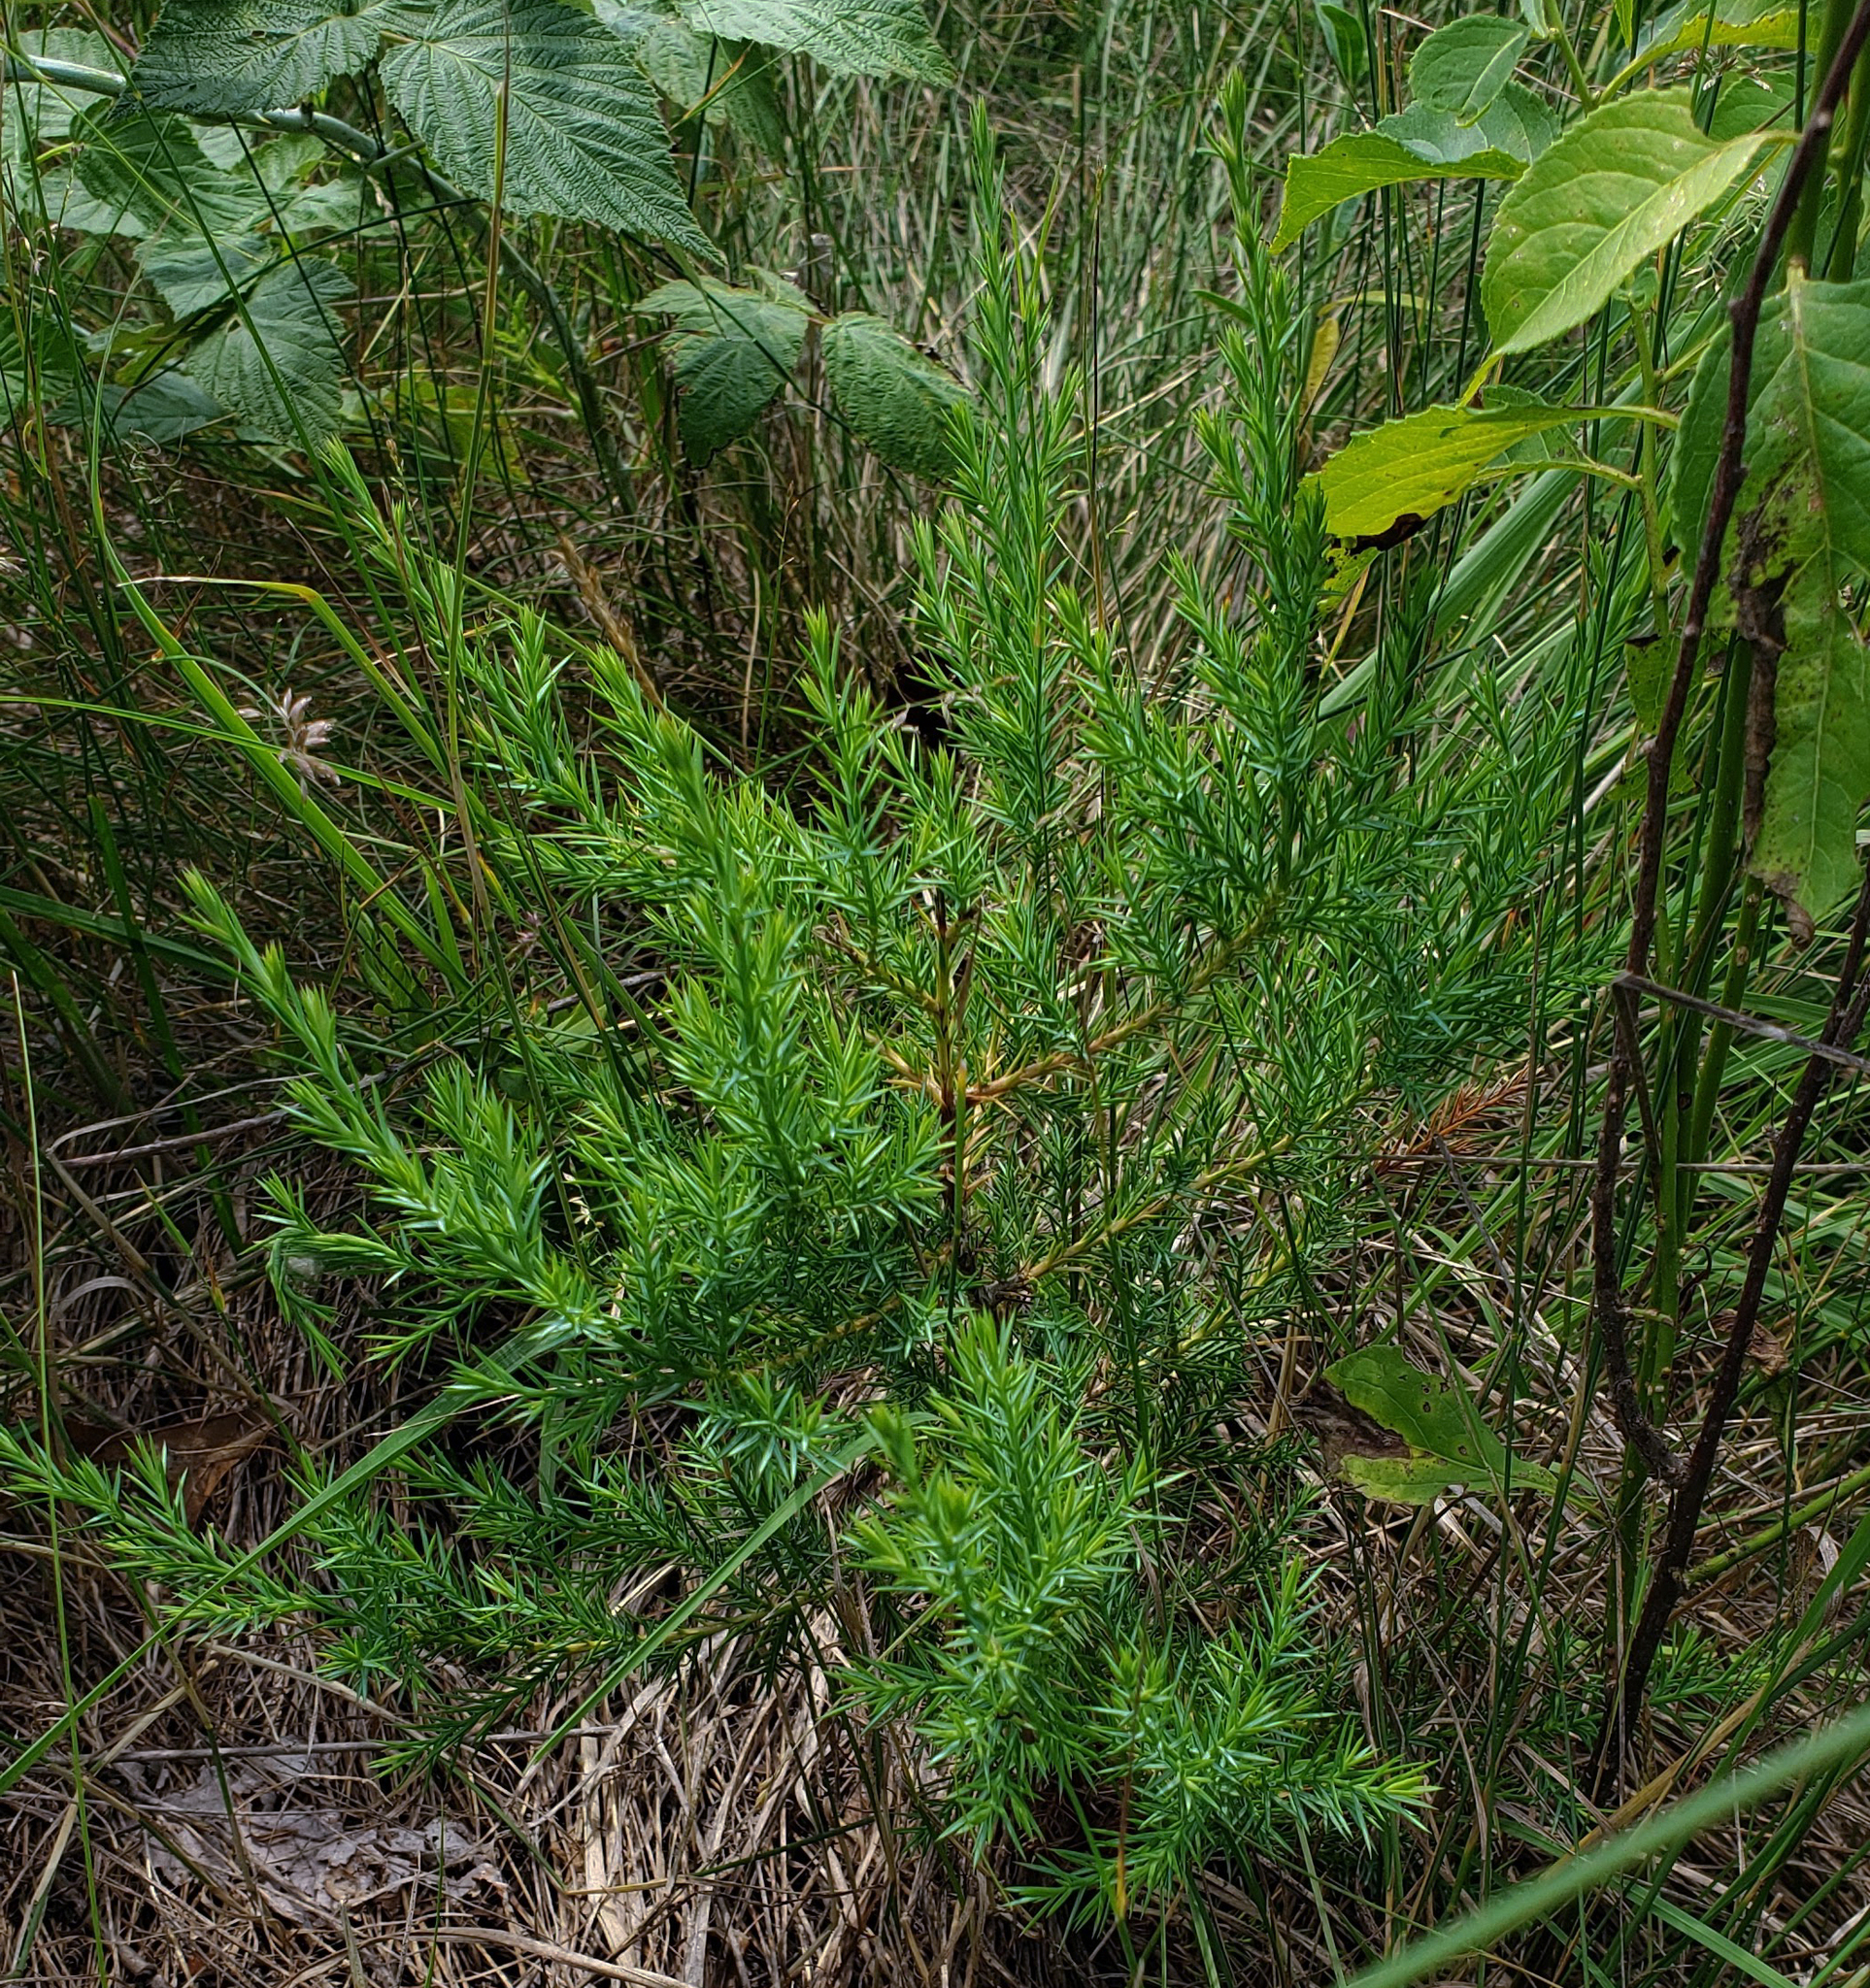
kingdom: Plantae
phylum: Tracheophyta
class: Pinopsida
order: Pinales
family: Cupressaceae
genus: Juniperus
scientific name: Juniperus virginiana
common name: Red juniper
